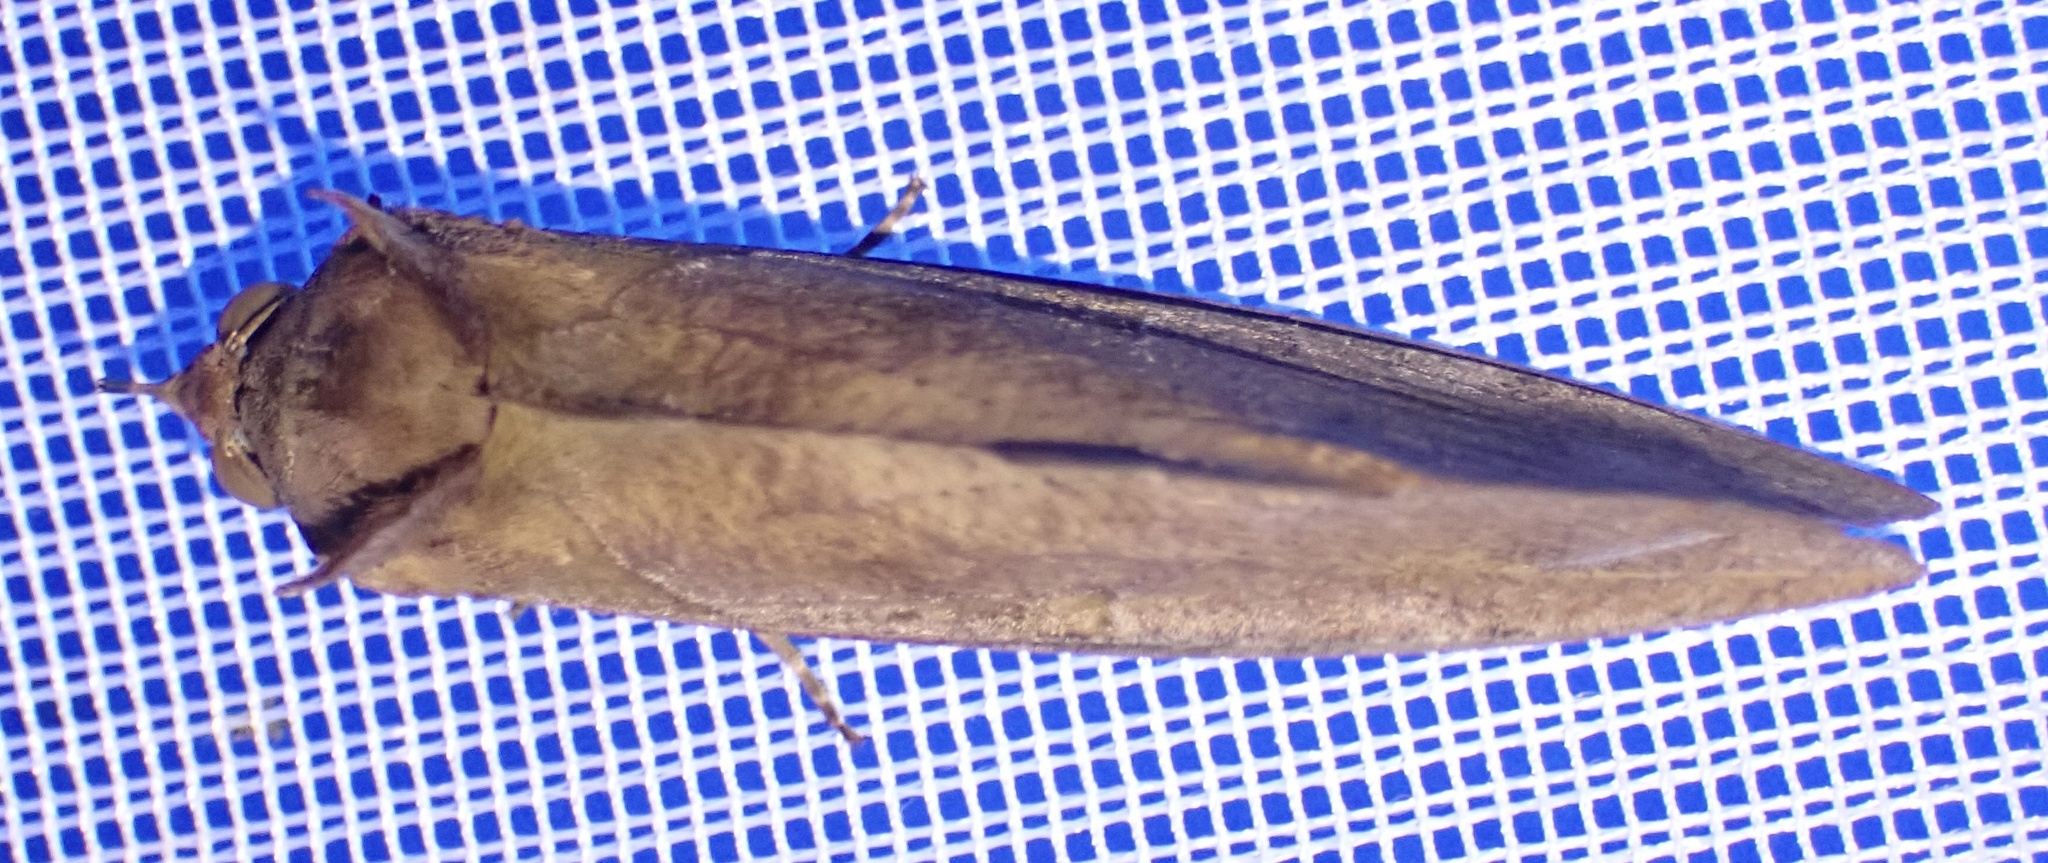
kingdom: Animalia
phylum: Arthropoda
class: Insecta
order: Lepidoptera
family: Erebidae
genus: Eudocima
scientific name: Eudocima afrikana
